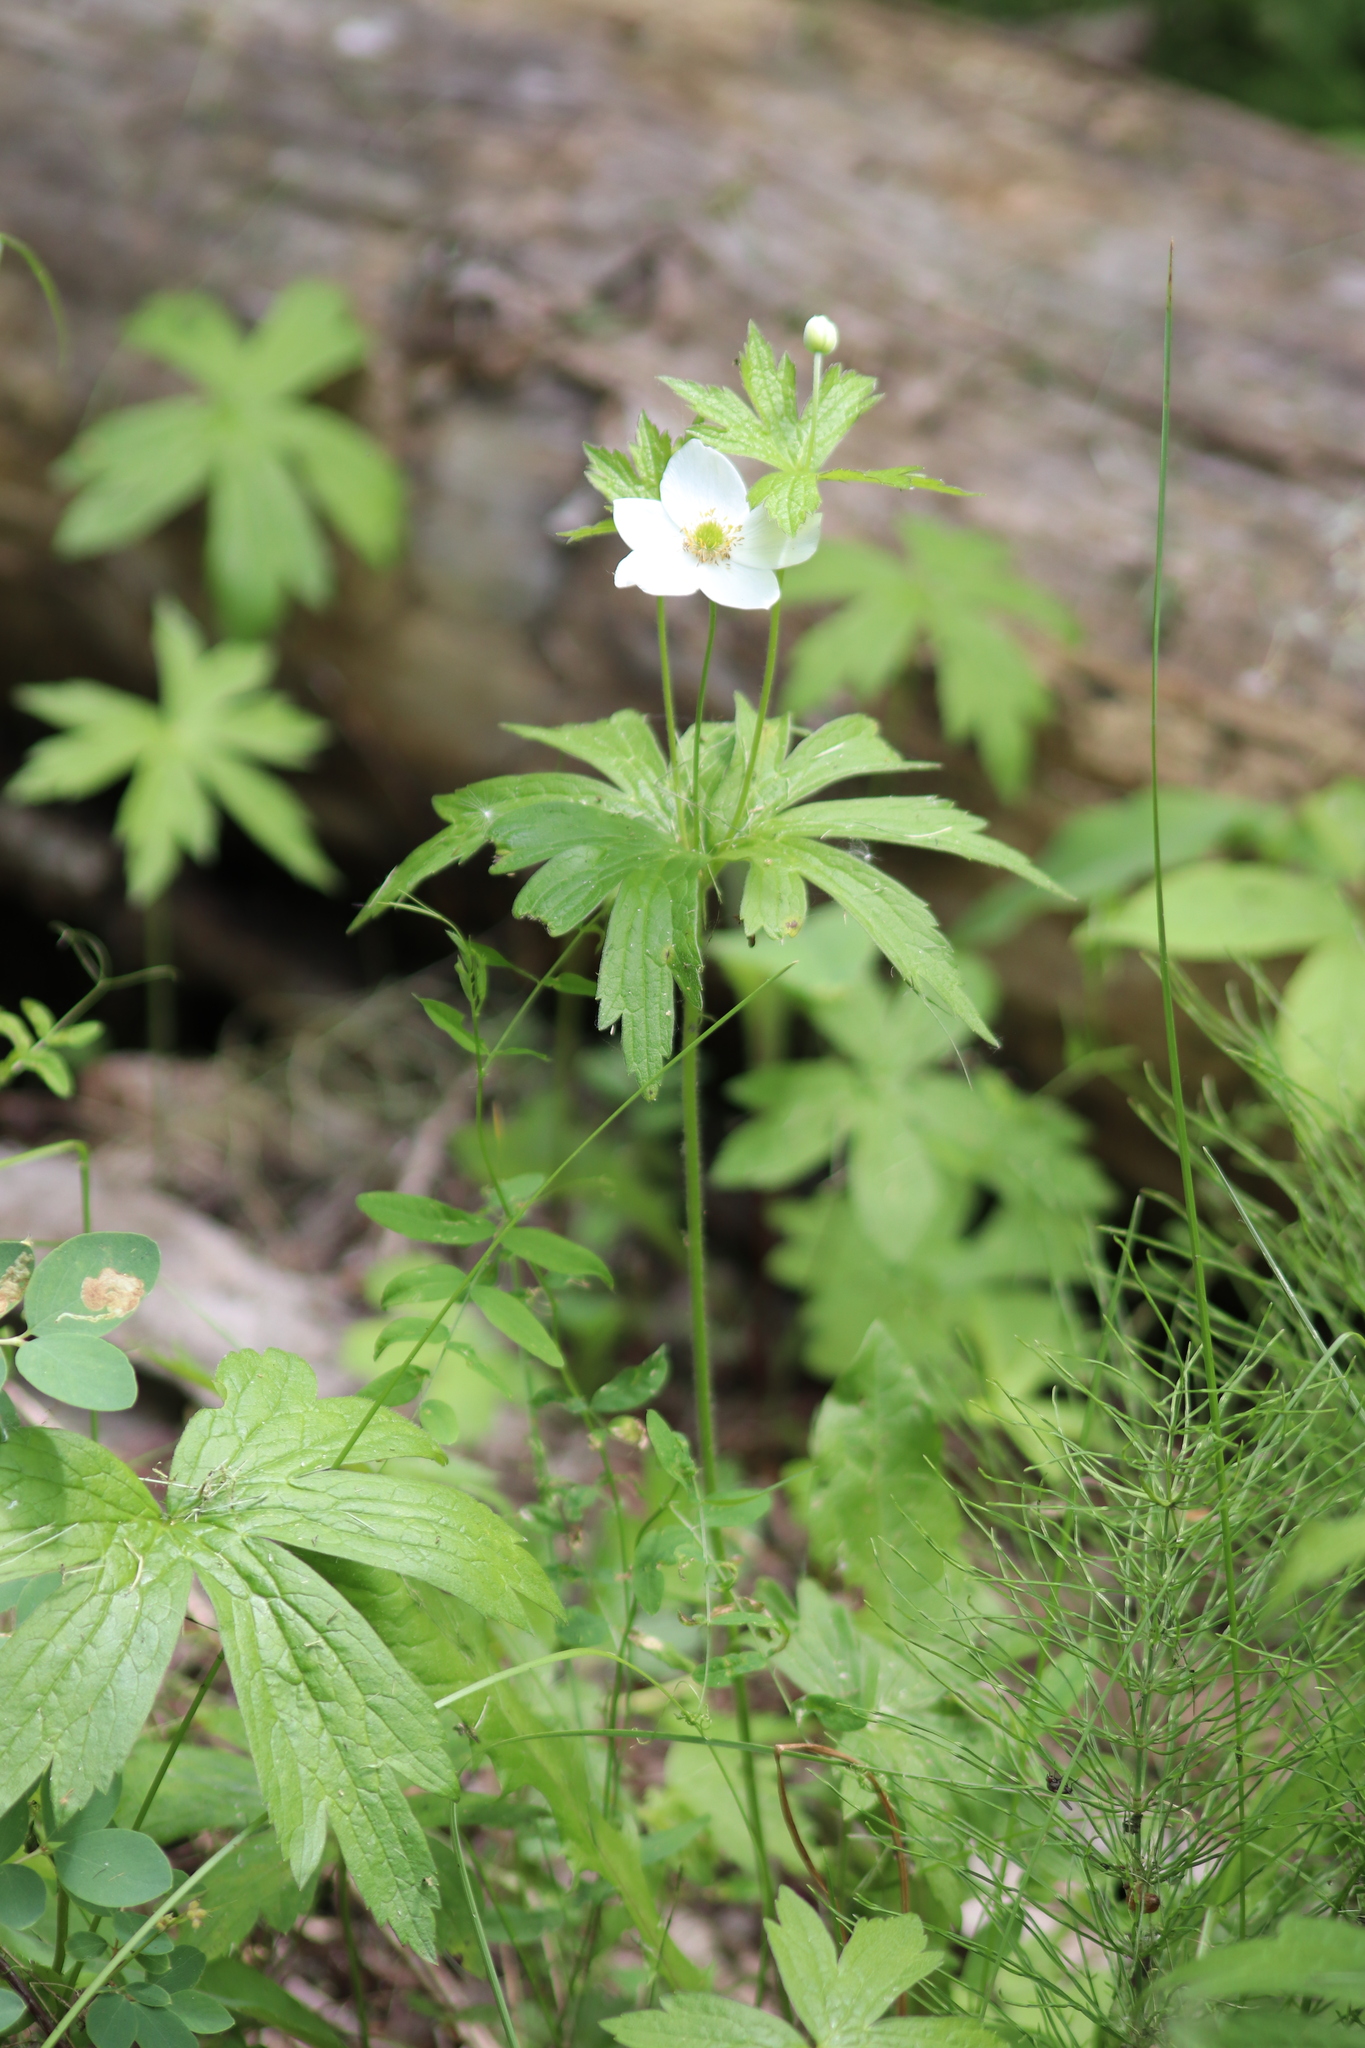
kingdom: Plantae
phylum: Tracheophyta
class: Magnoliopsida
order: Ranunculales
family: Ranunculaceae
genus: Anemonastrum
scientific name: Anemonastrum canadense
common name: Canada anemone
